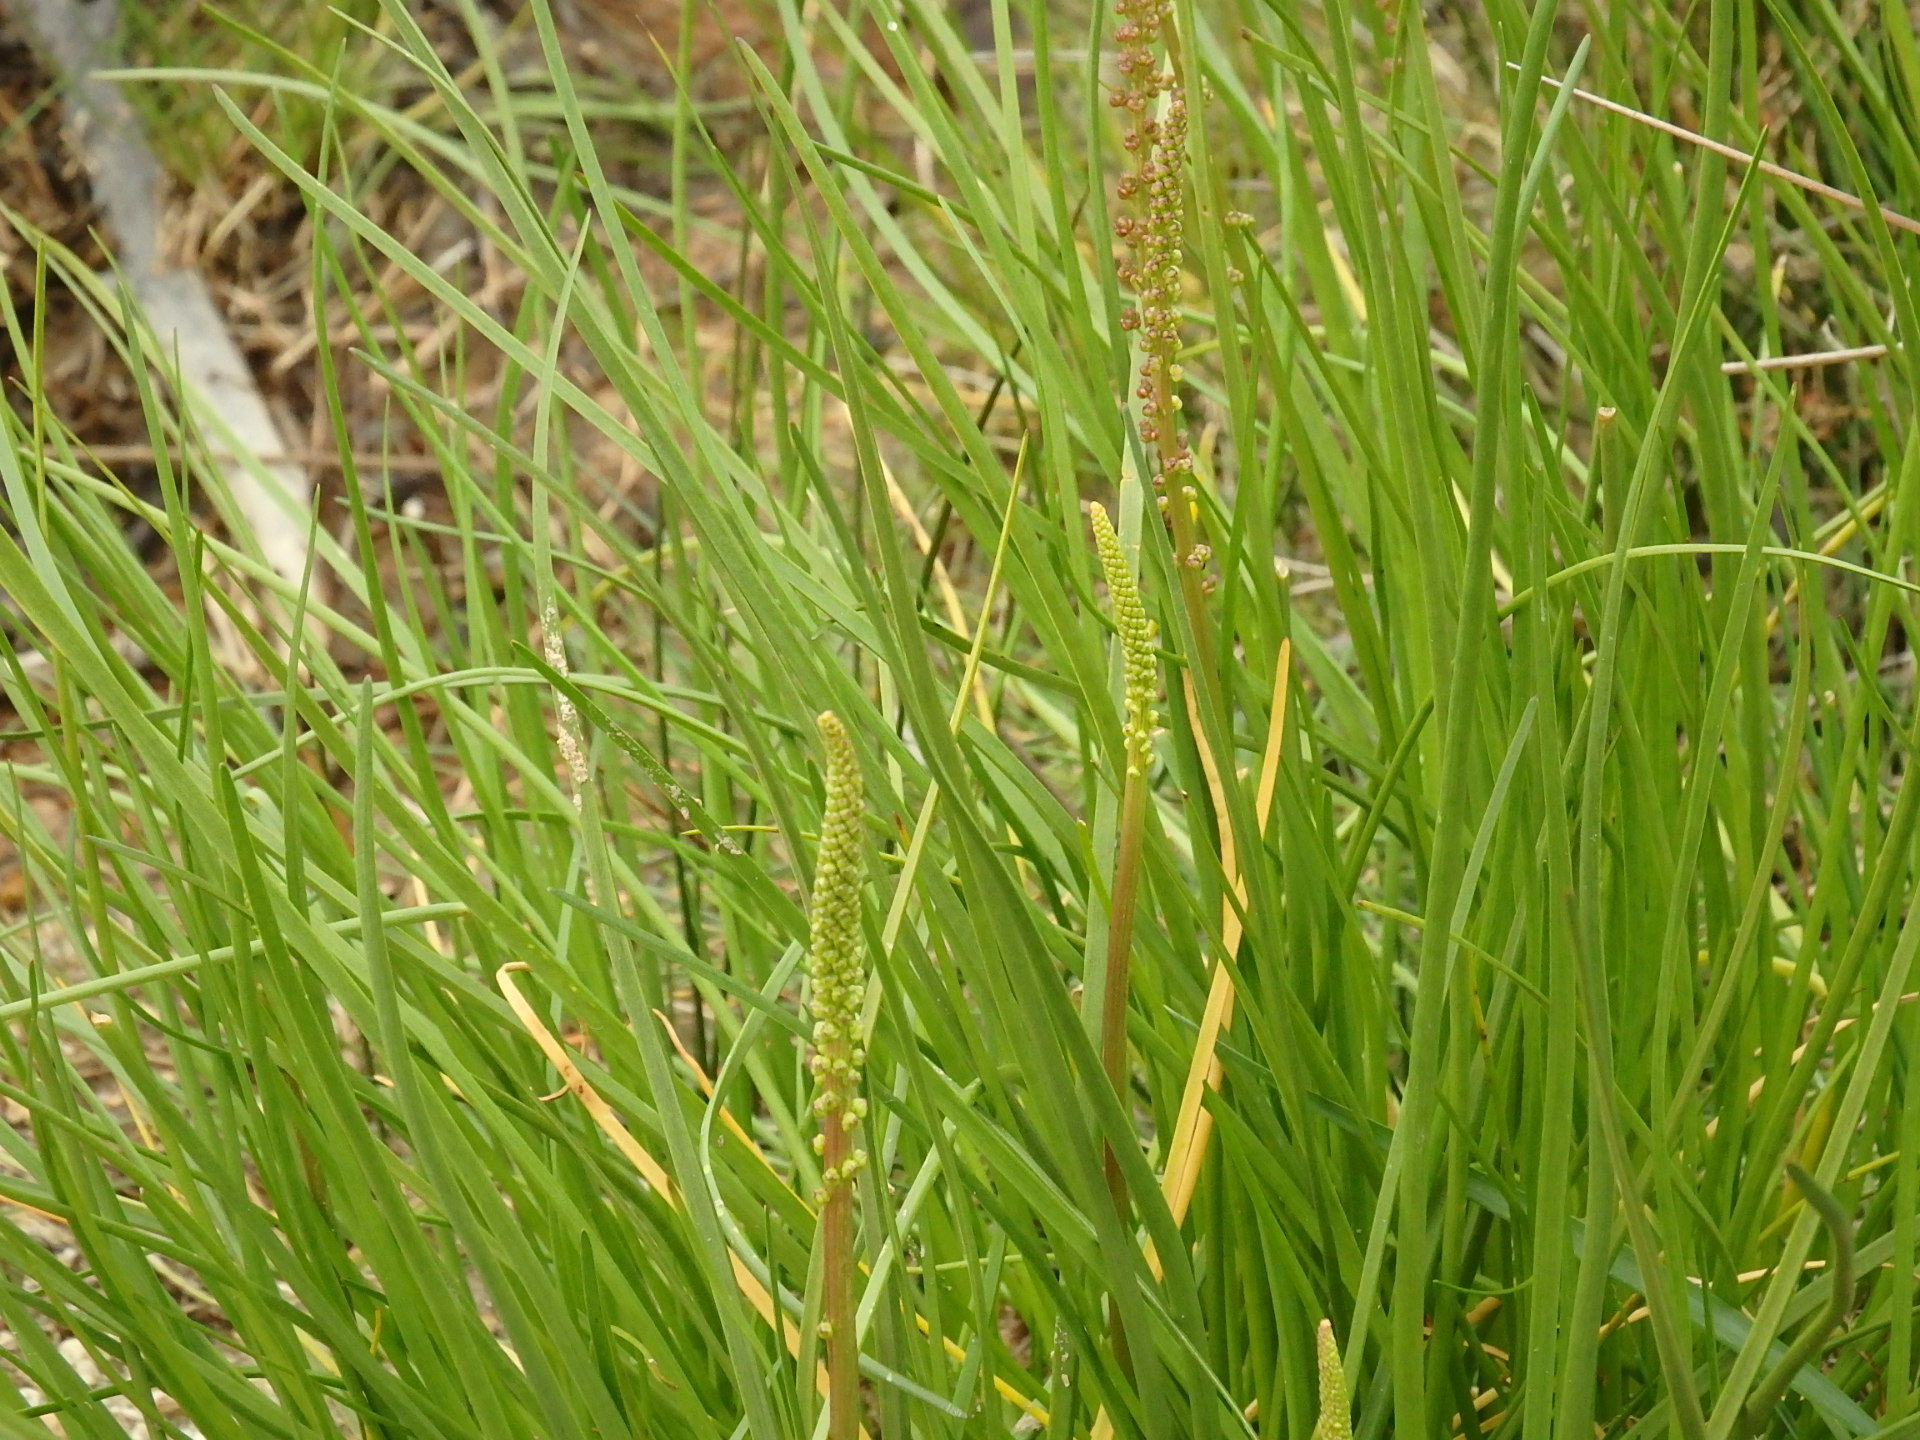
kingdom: Plantae
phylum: Tracheophyta
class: Liliopsida
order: Alismatales
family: Juncaginaceae
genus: Triglochin
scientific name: Triglochin maritima
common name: Sea arrowgrass
